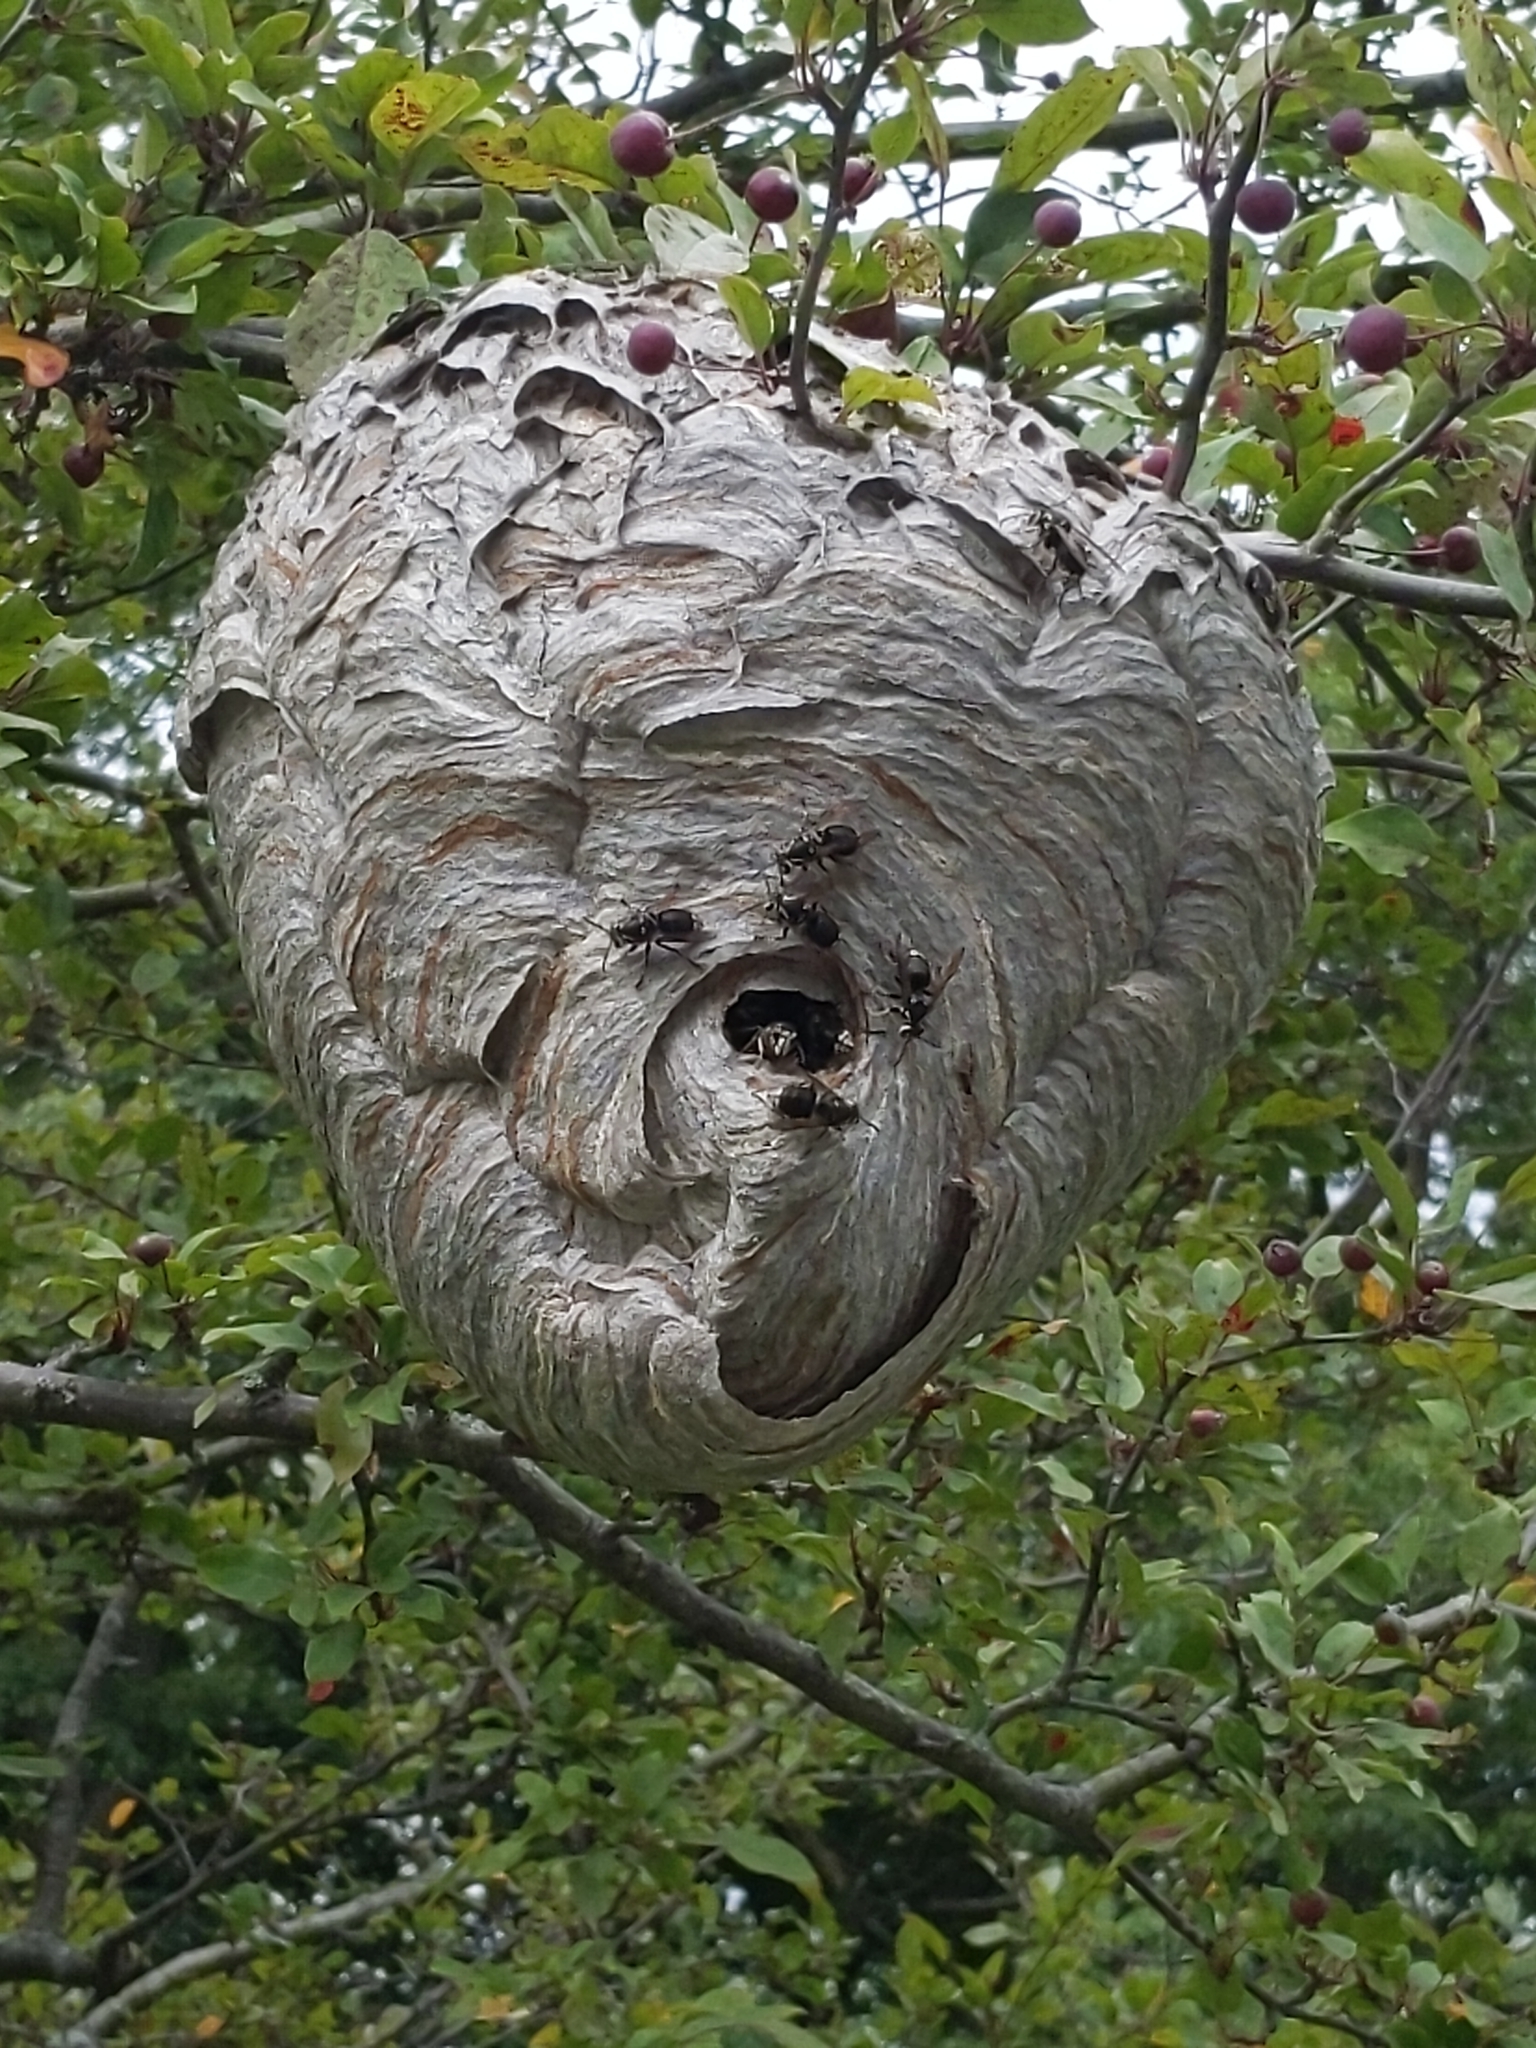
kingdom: Animalia
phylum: Arthropoda
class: Insecta
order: Hymenoptera
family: Vespidae
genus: Dolichovespula
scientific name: Dolichovespula maculata
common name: Bald-faced hornet
